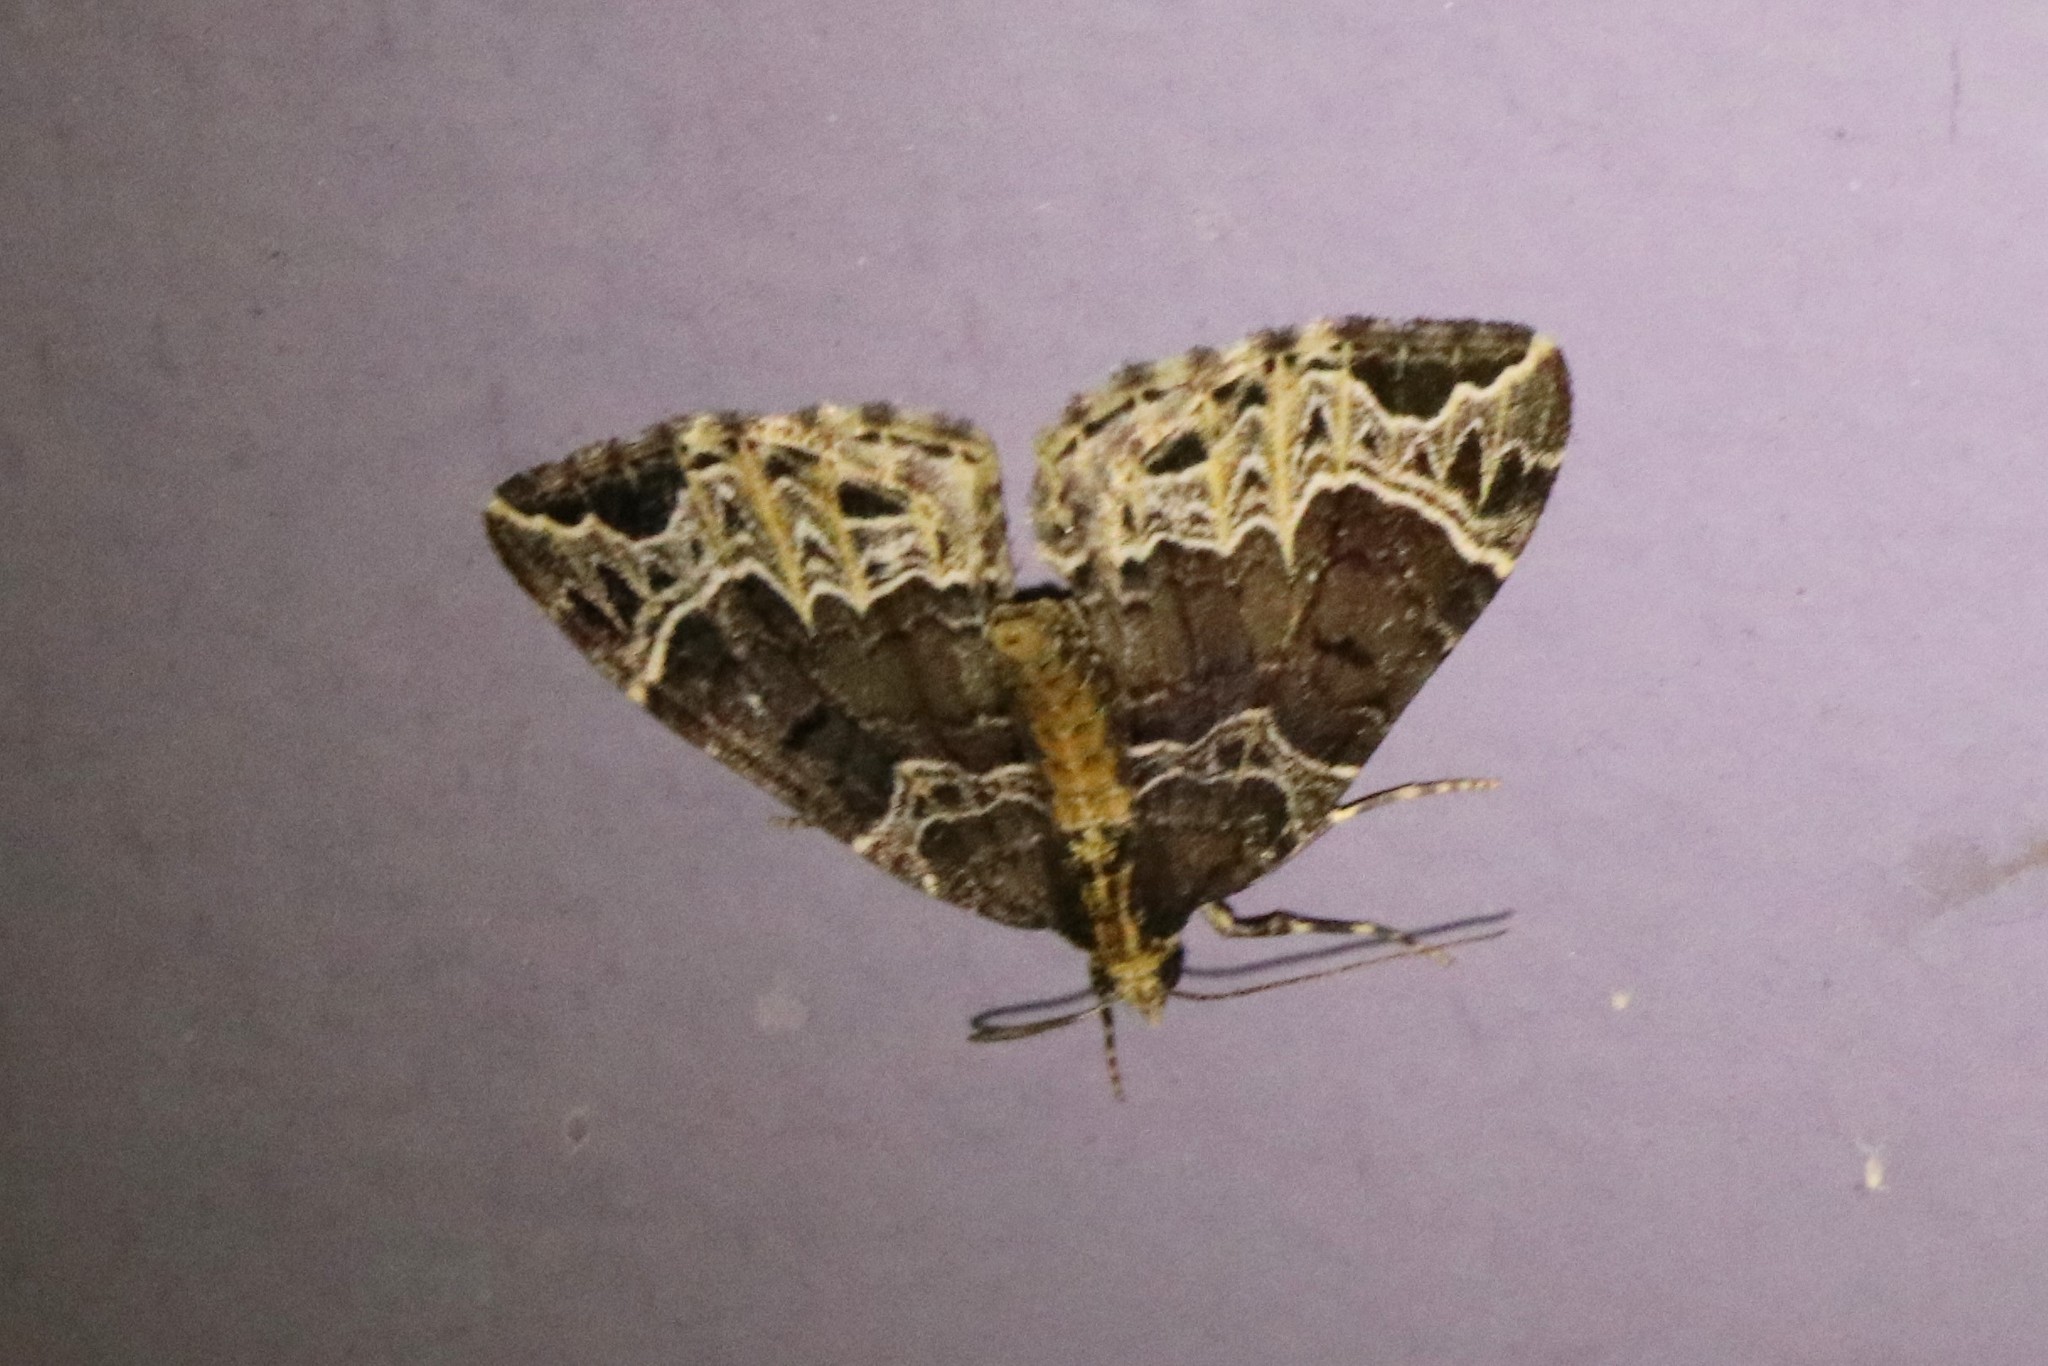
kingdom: Animalia
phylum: Arthropoda
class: Insecta
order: Lepidoptera
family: Geometridae
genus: Ecliptopera
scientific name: Ecliptopera silaceata
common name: Small phoenix
